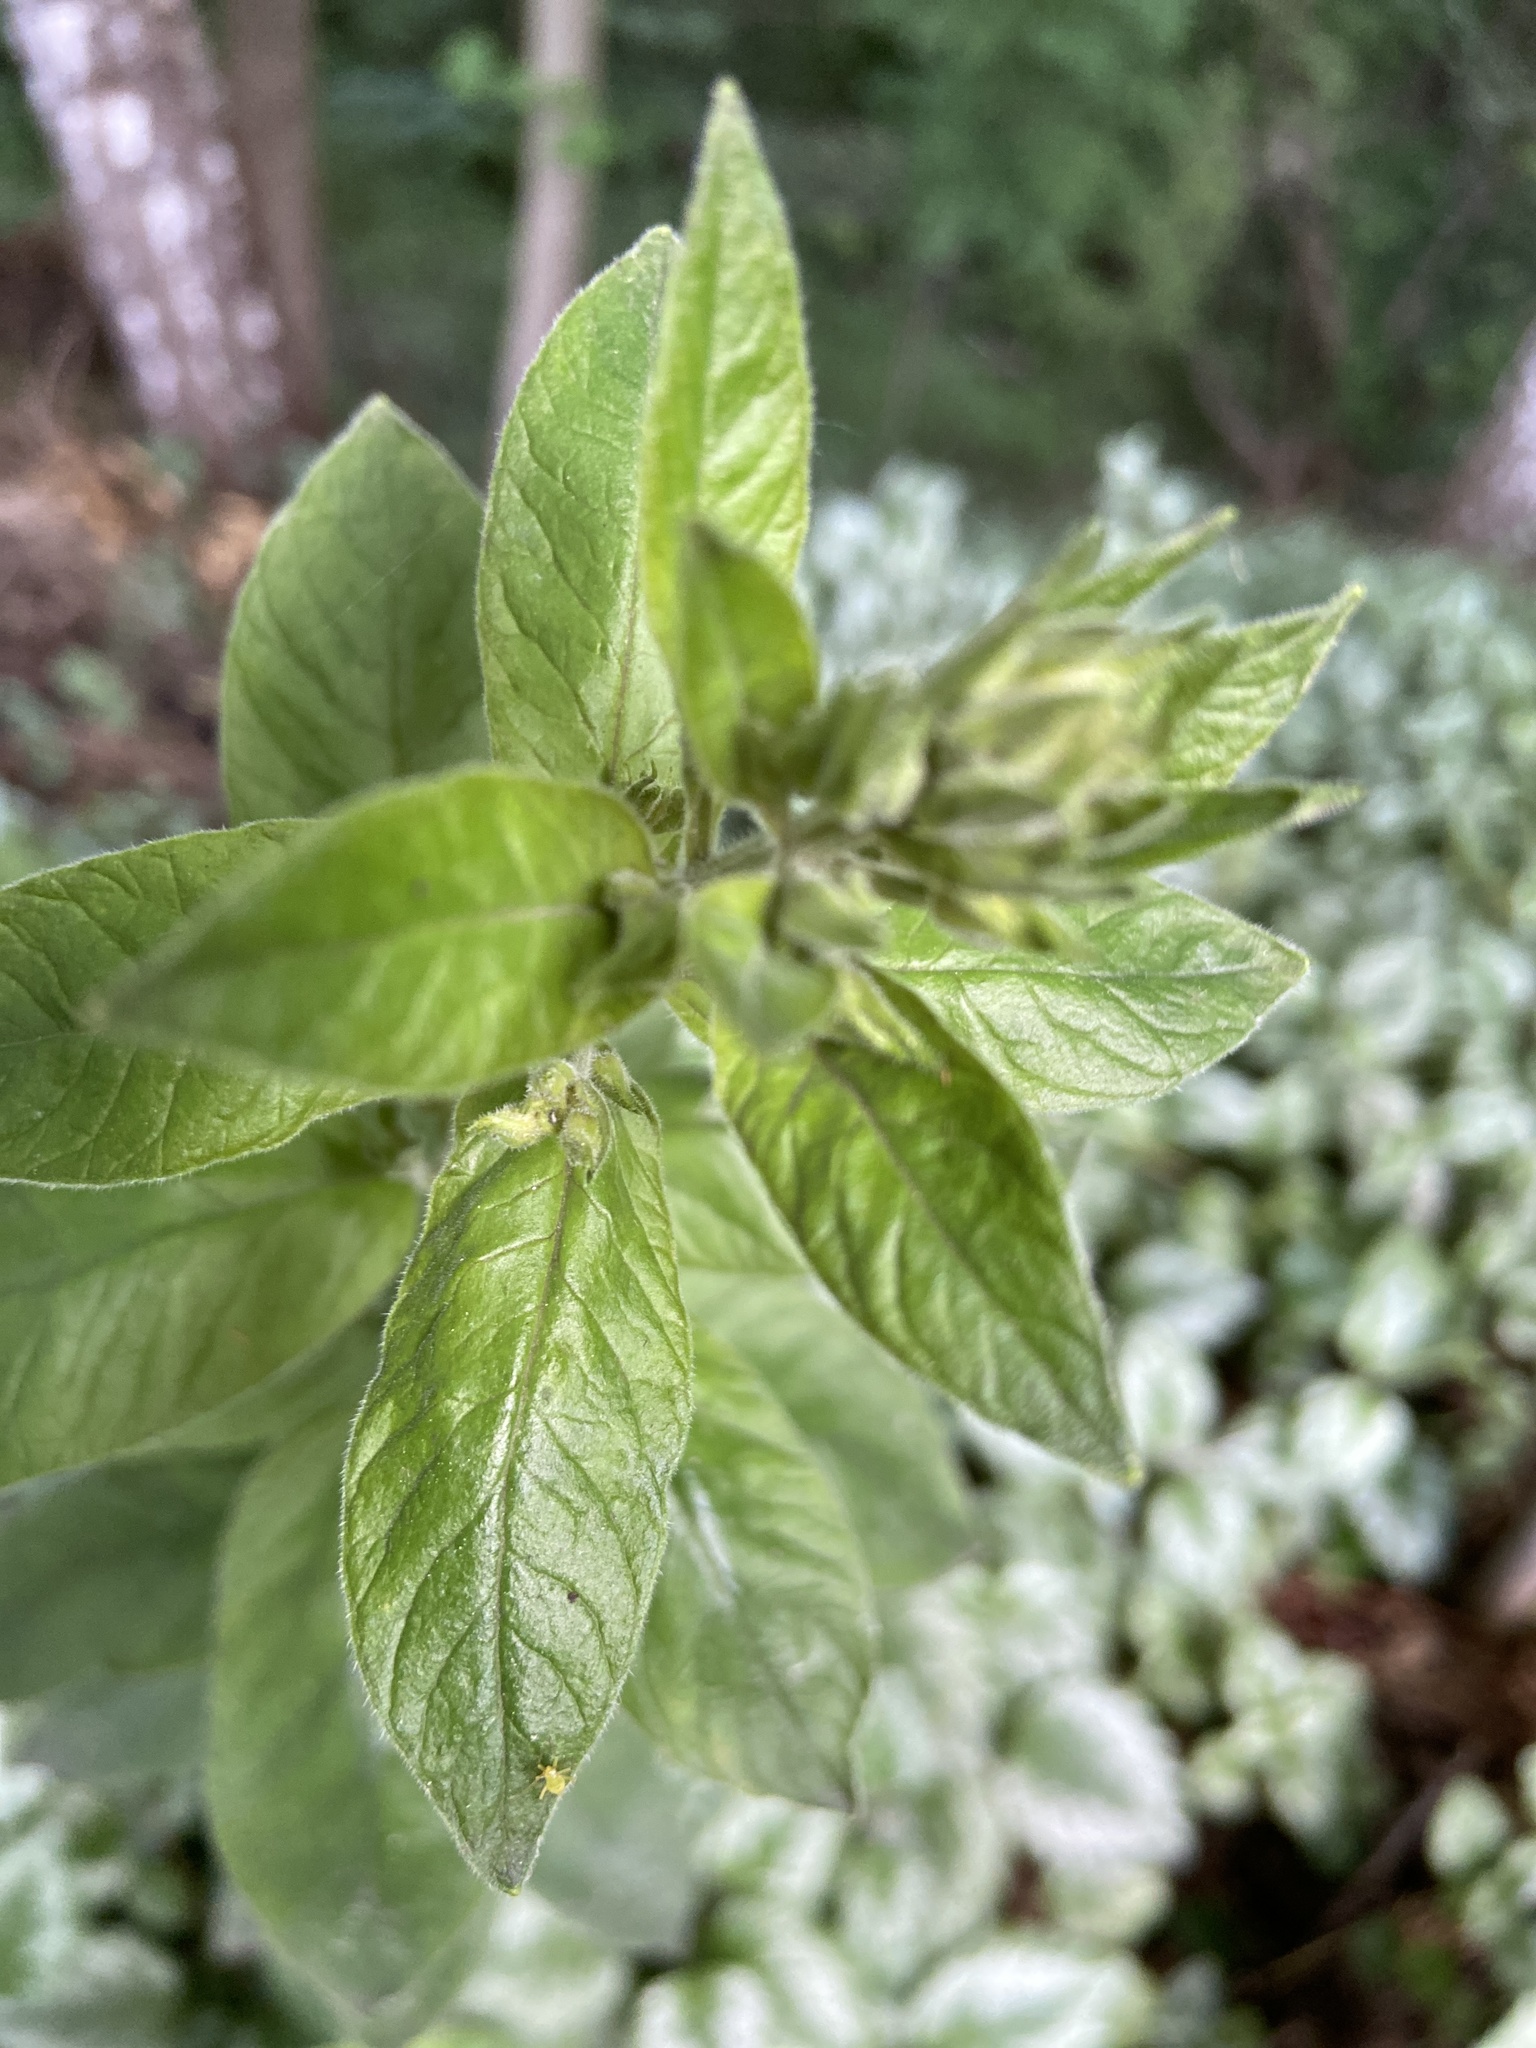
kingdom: Plantae
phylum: Tracheophyta
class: Magnoliopsida
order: Ericales
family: Primulaceae
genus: Lysimachia
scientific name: Lysimachia punctata
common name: Dotted loosestrife
